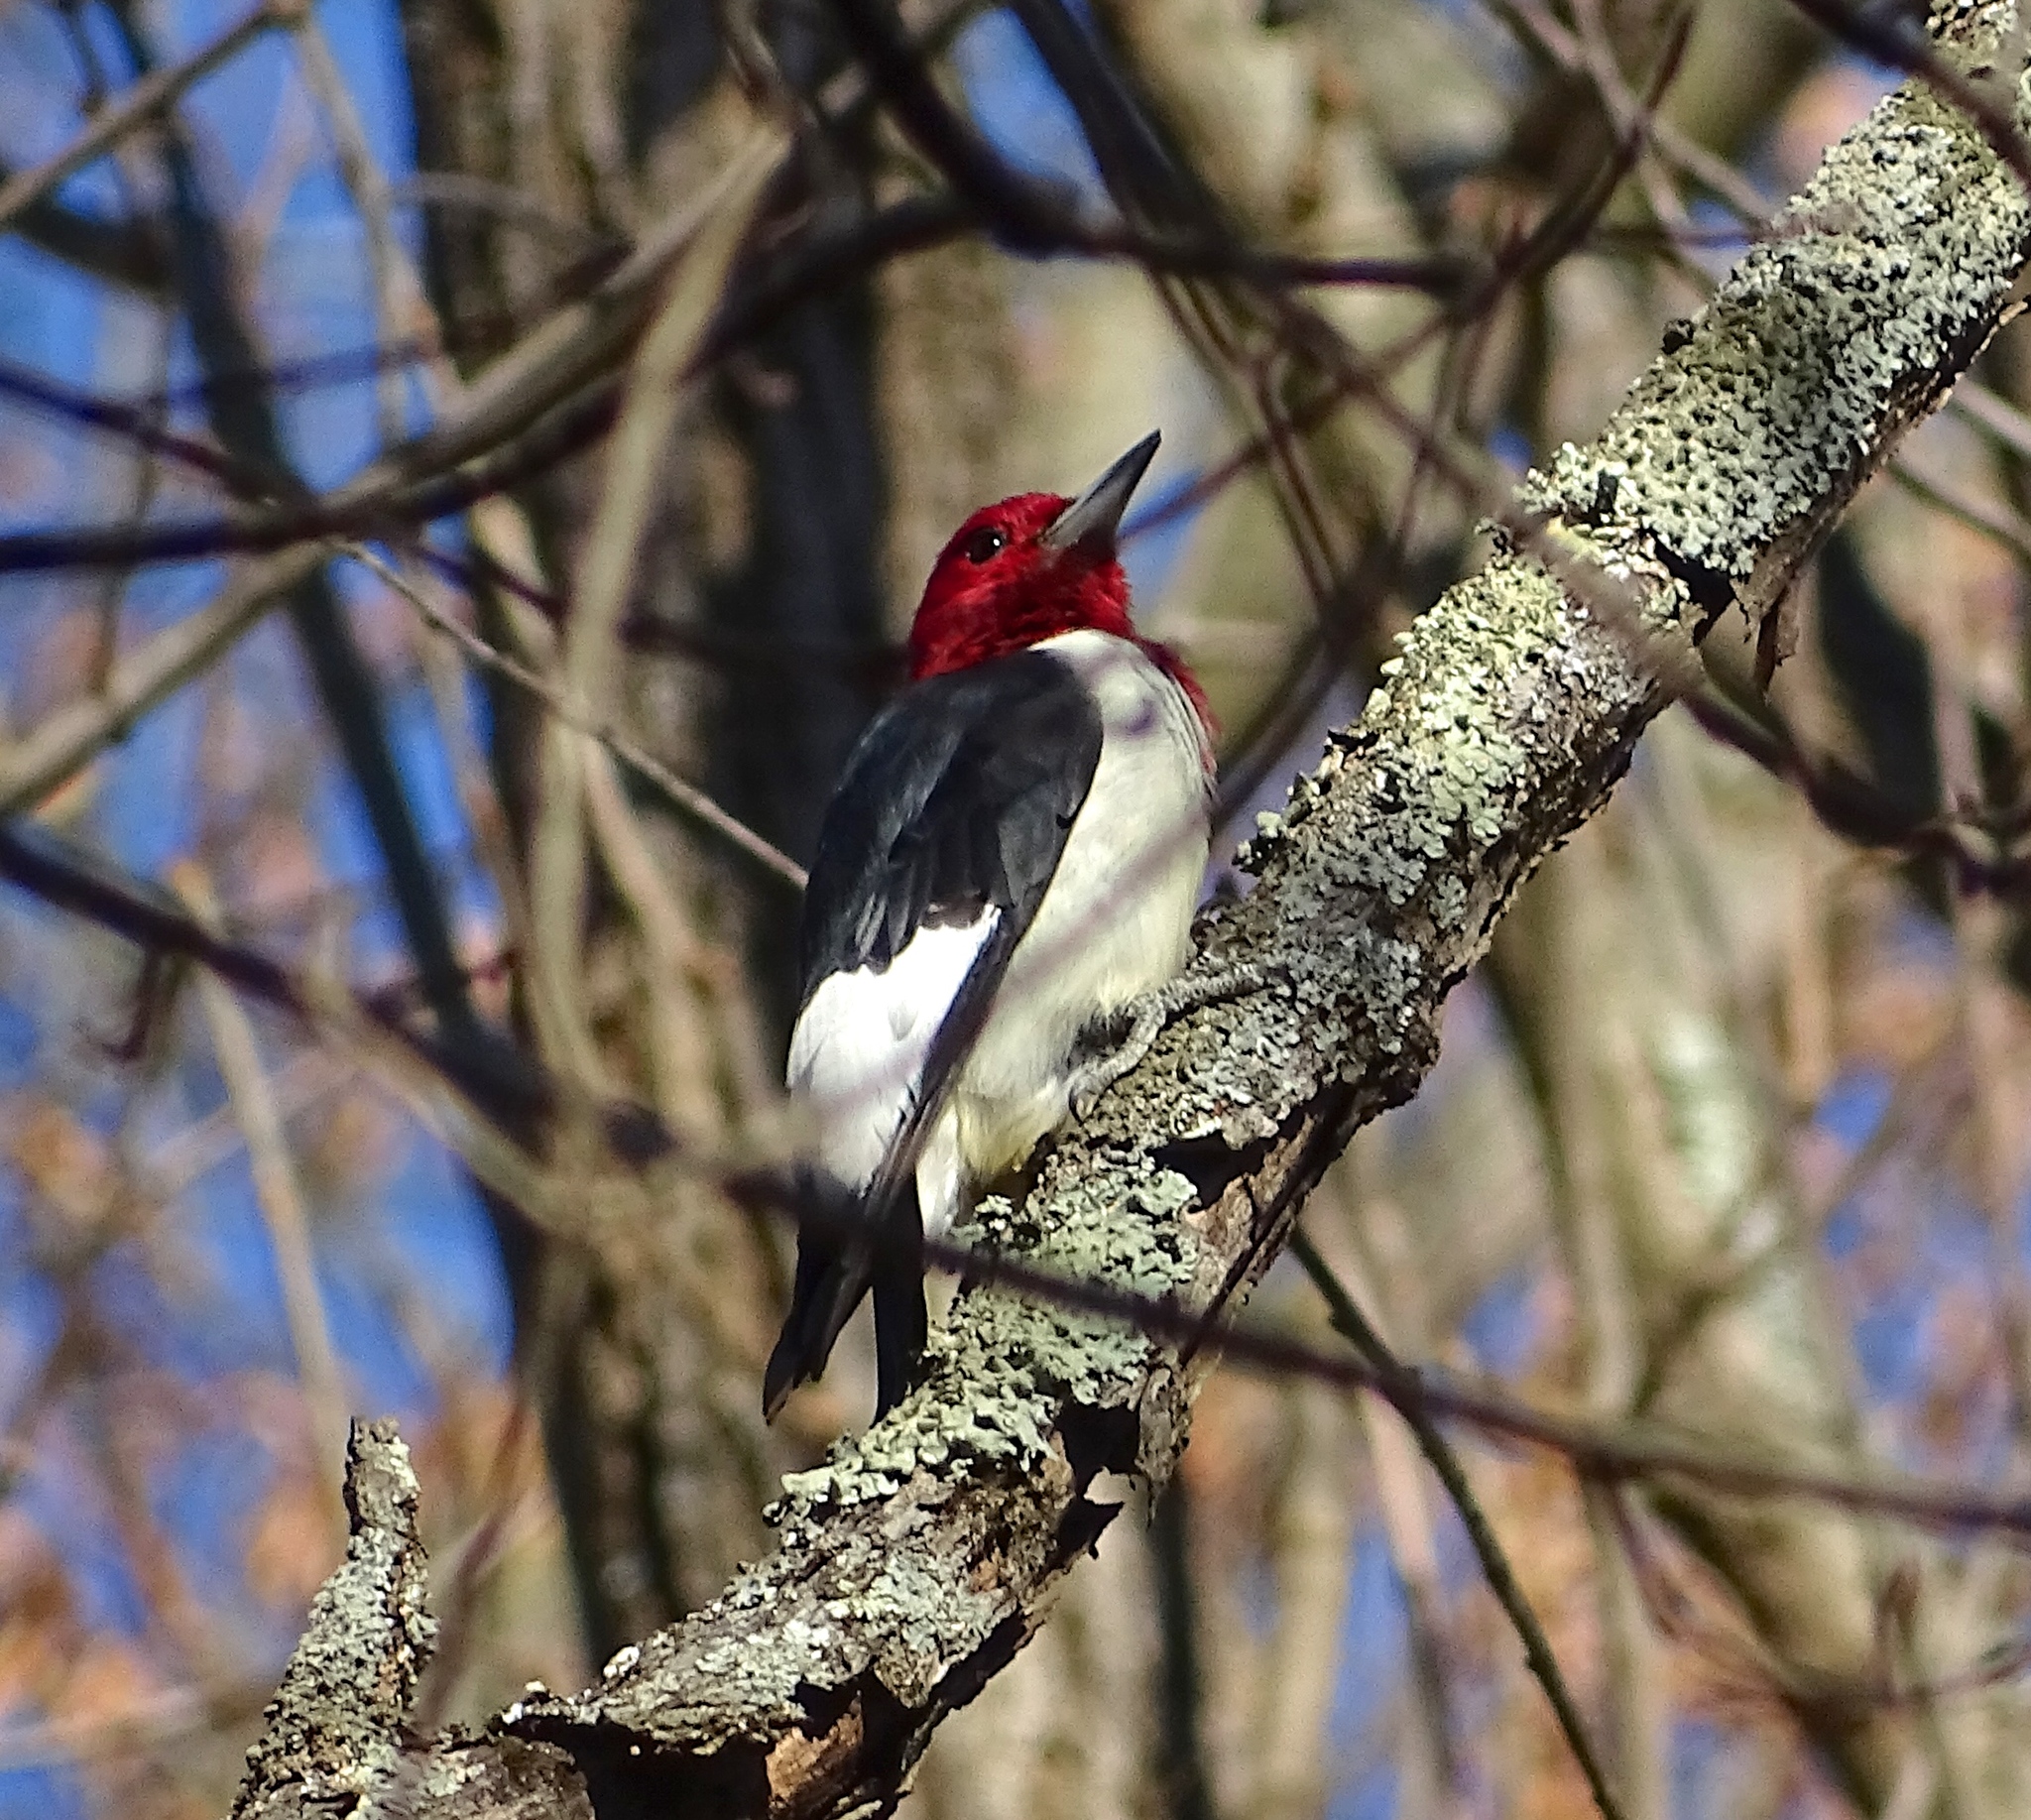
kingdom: Animalia
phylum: Chordata
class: Aves
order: Piciformes
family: Picidae
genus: Melanerpes
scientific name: Melanerpes erythrocephalus
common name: Red-headed woodpecker
